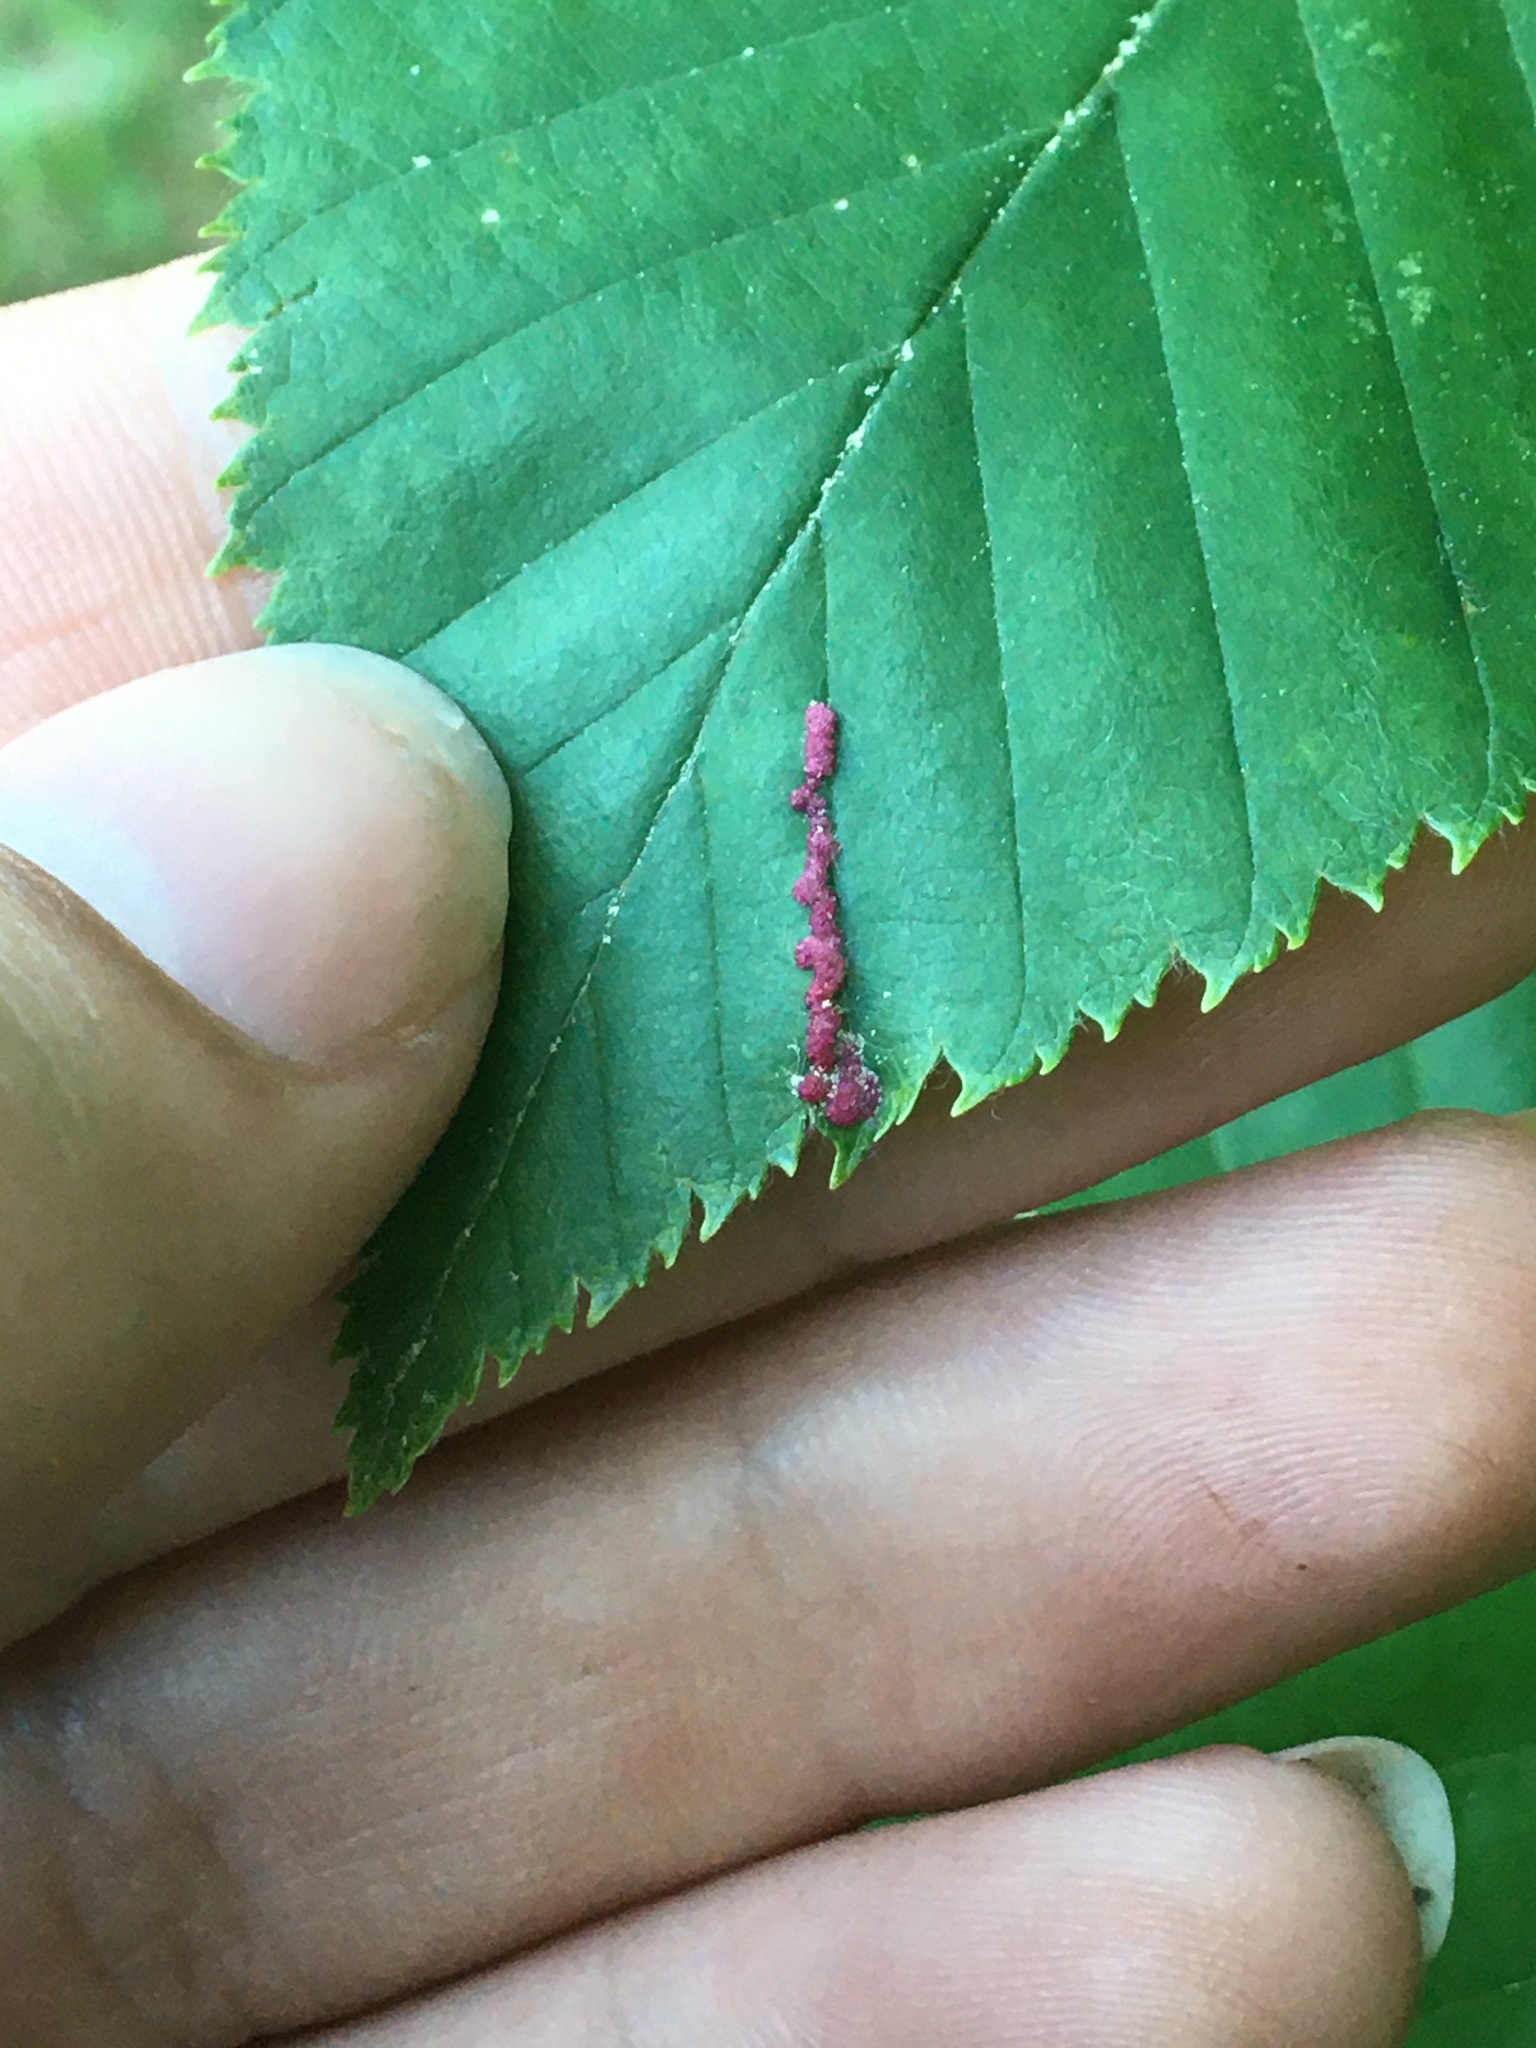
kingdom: Animalia
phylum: Arthropoda
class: Arachnida
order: Trombidiformes
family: Eriophyidae
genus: Acalitus
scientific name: Acalitus longisetosus
